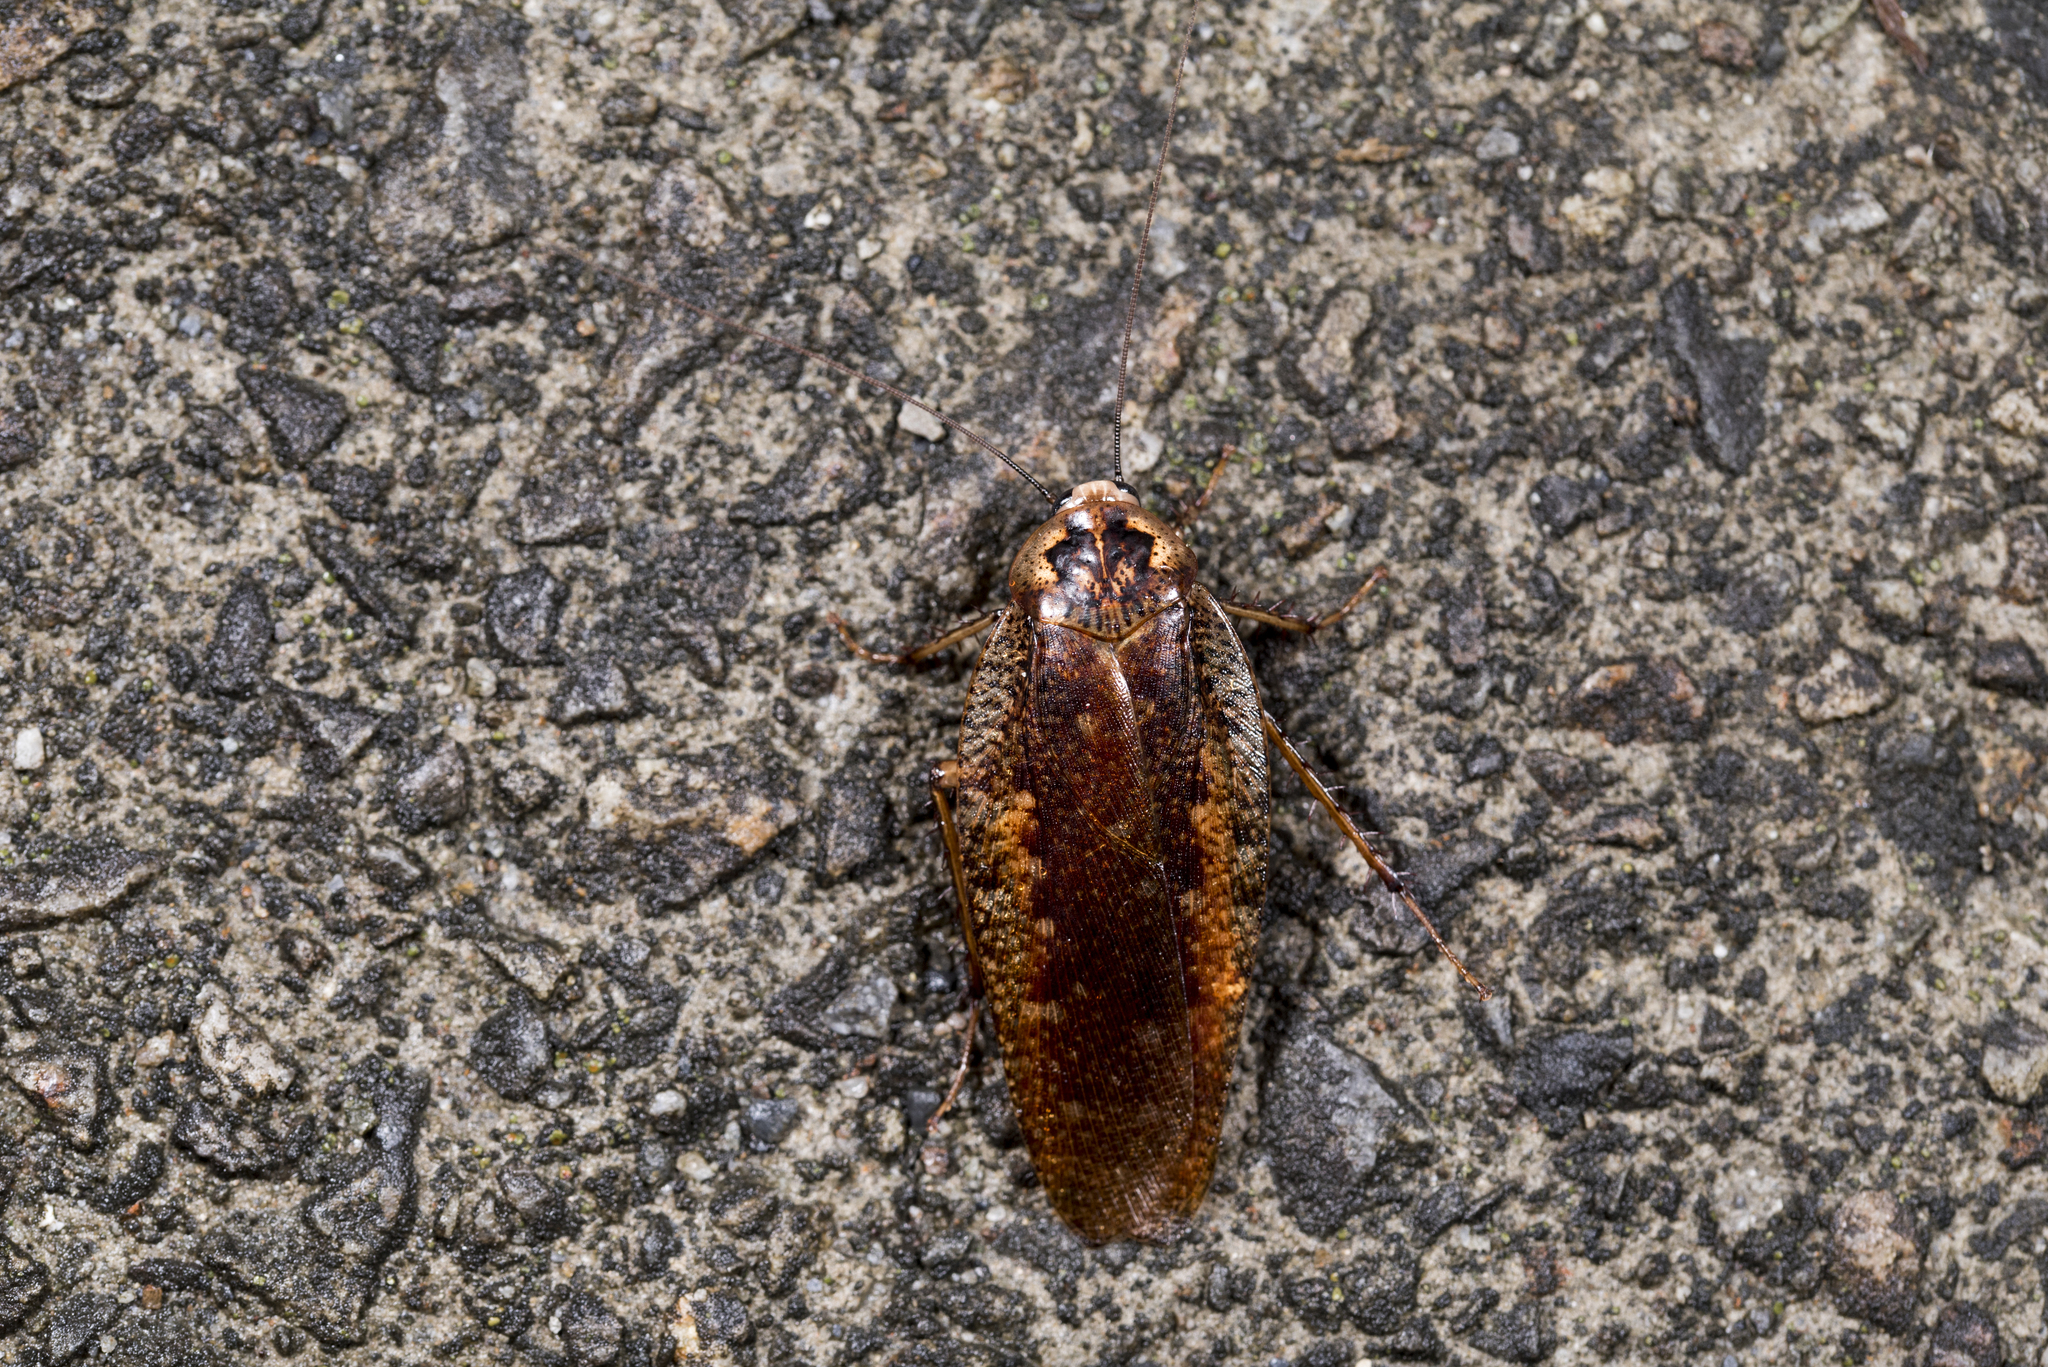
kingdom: Animalia
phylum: Arthropoda
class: Insecta
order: Blattodea
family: Blaberidae
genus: Rhabdoblatta
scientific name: Rhabdoblatta karnyi
